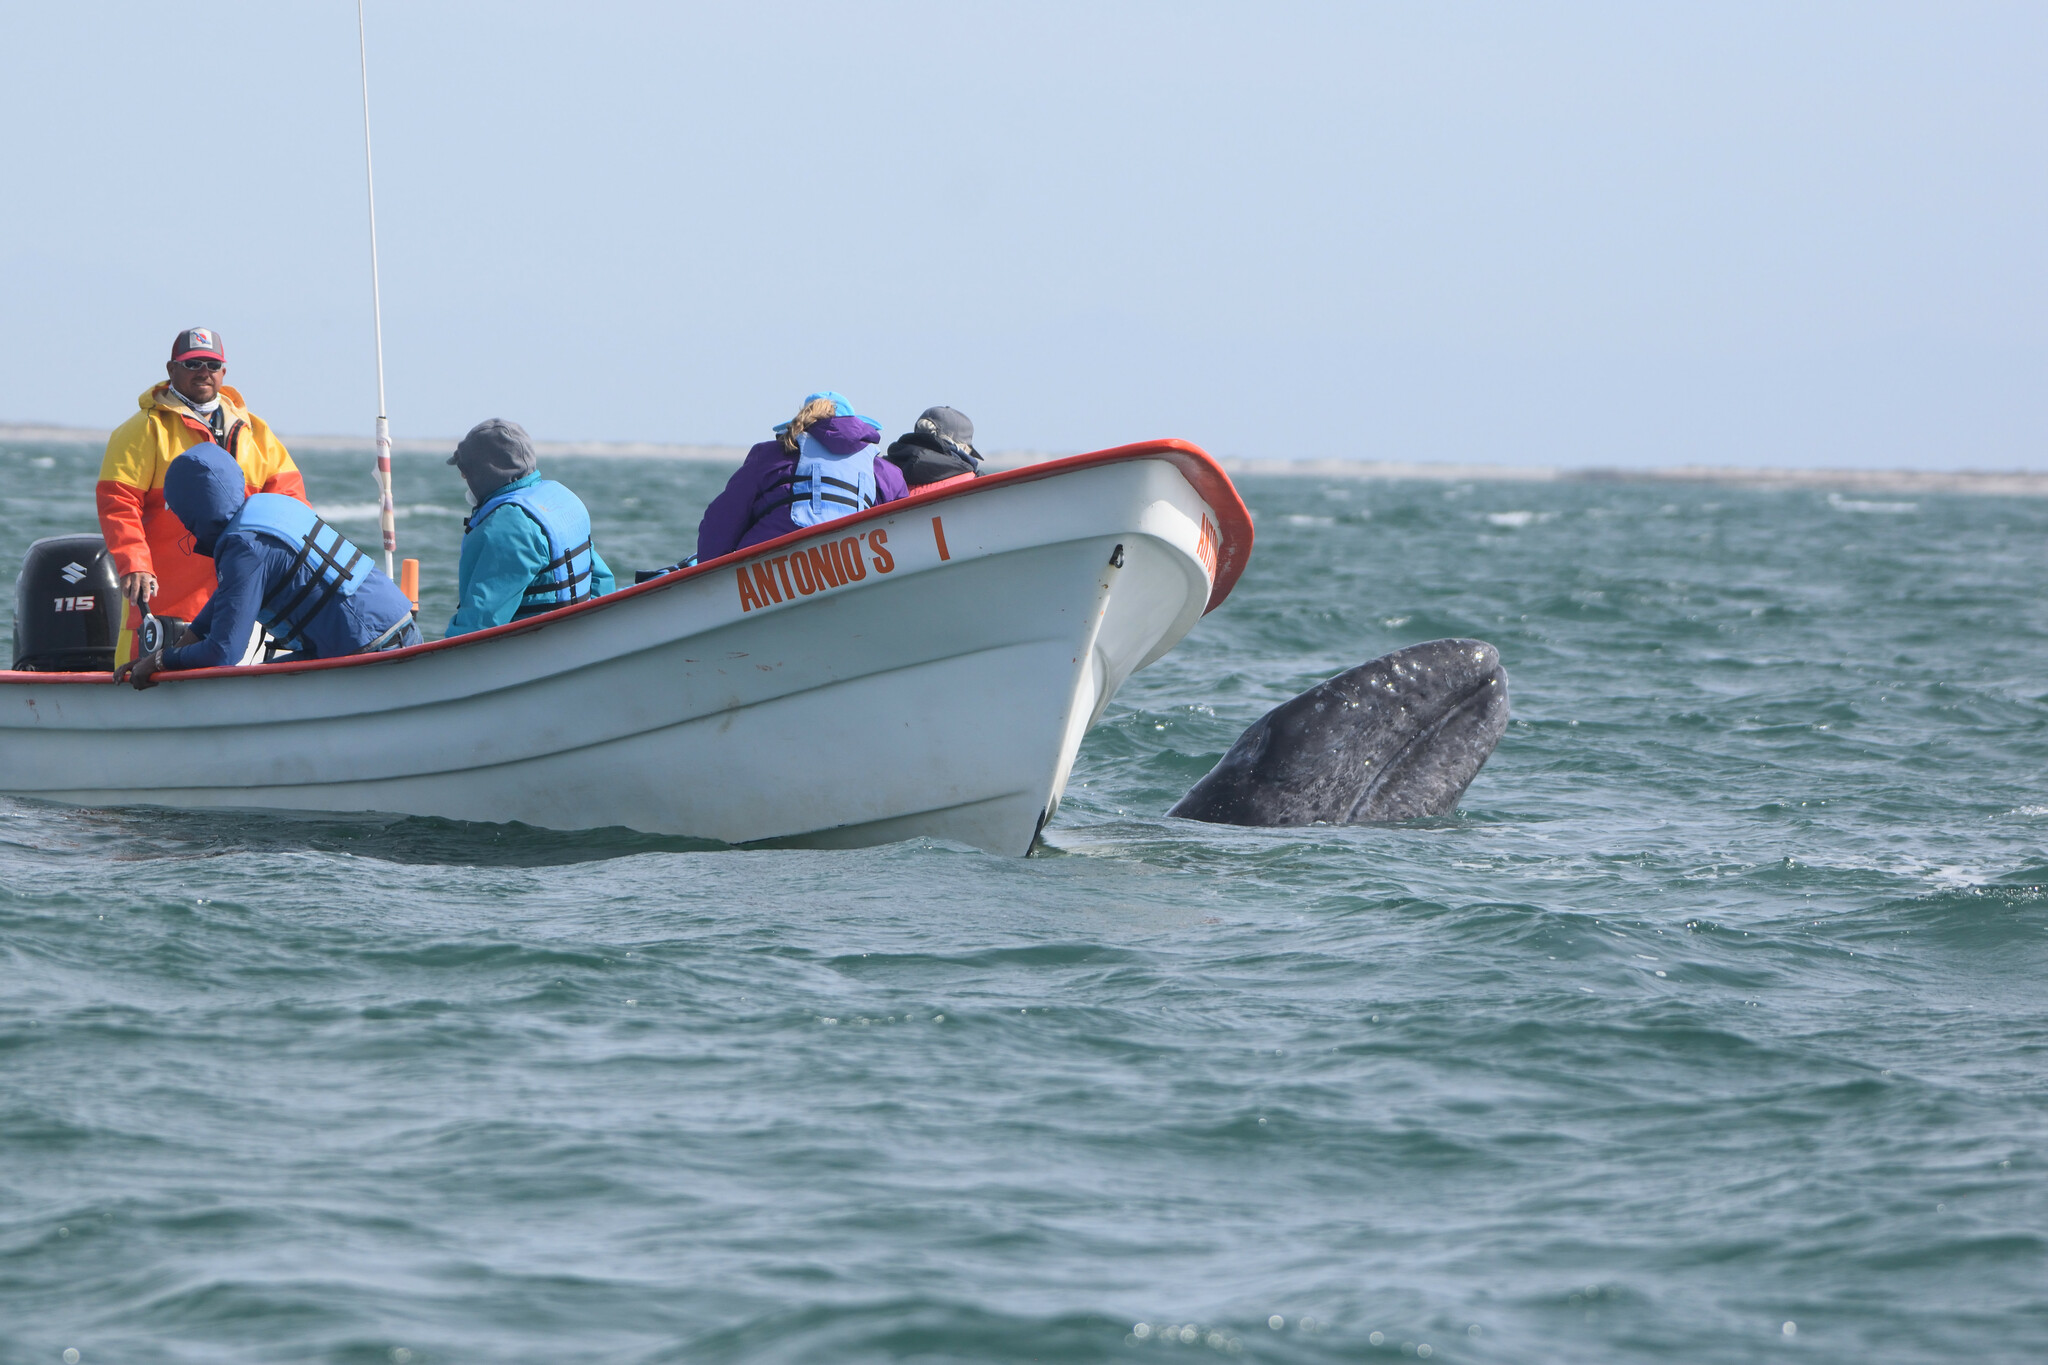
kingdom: Animalia
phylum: Chordata
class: Mammalia
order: Cetacea
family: Eschrichtiidae
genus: Eschrichtius
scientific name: Eschrichtius robustus
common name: Gray whale
